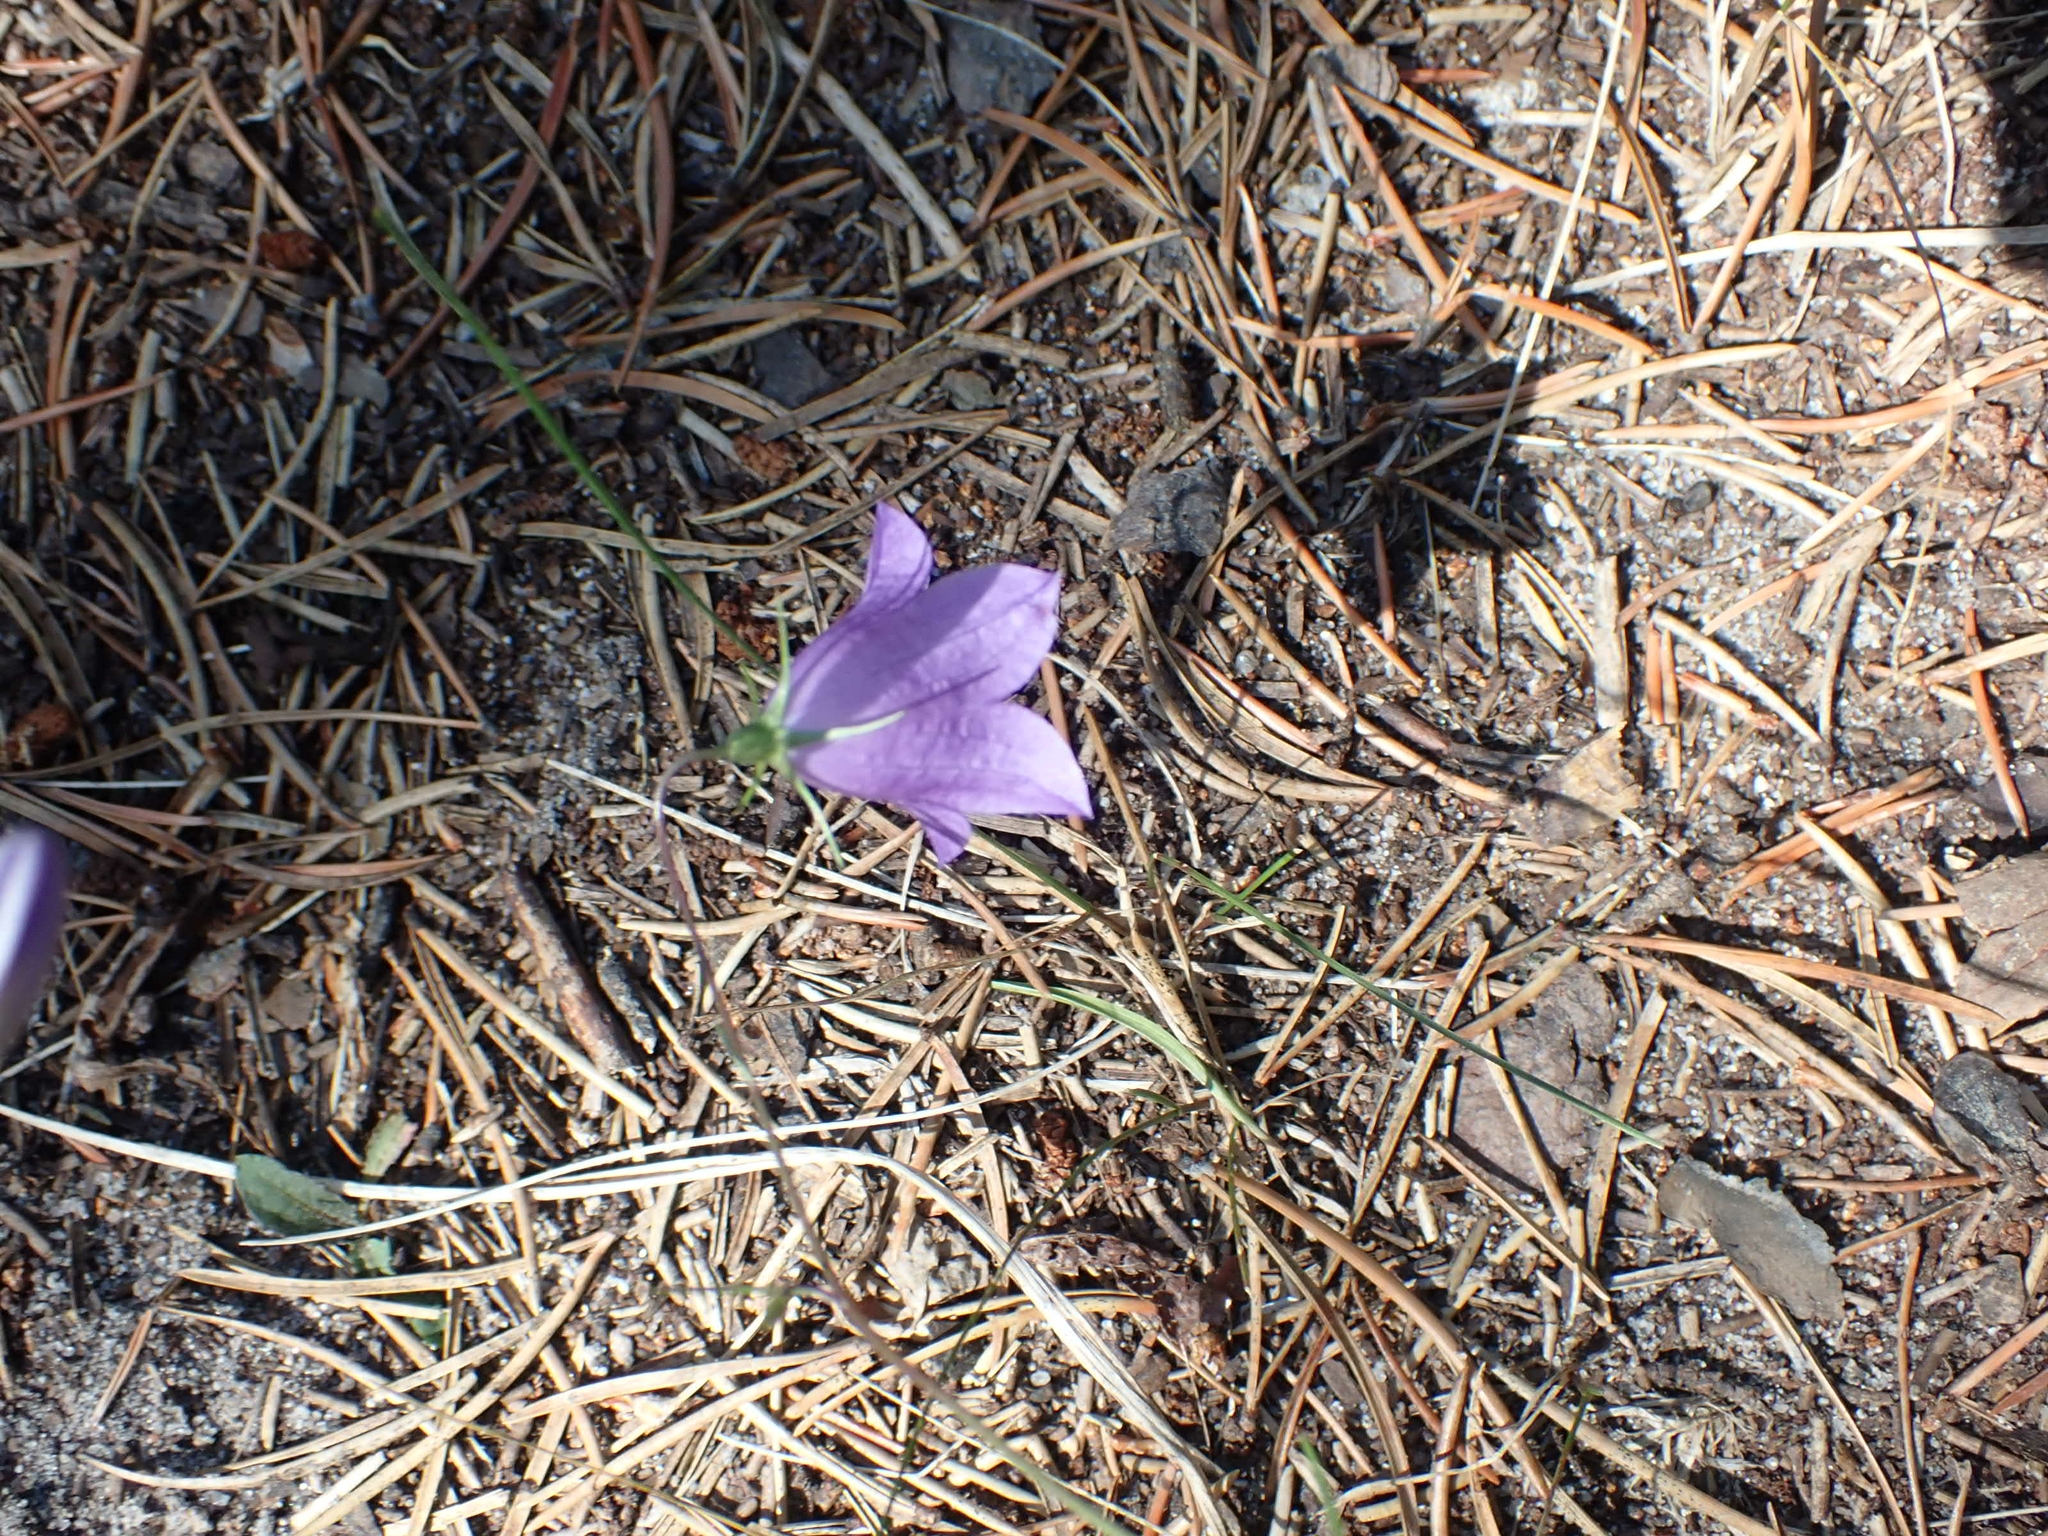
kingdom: Plantae
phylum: Tracheophyta
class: Magnoliopsida
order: Asterales
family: Campanulaceae
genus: Campanula
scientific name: Campanula petiolata
